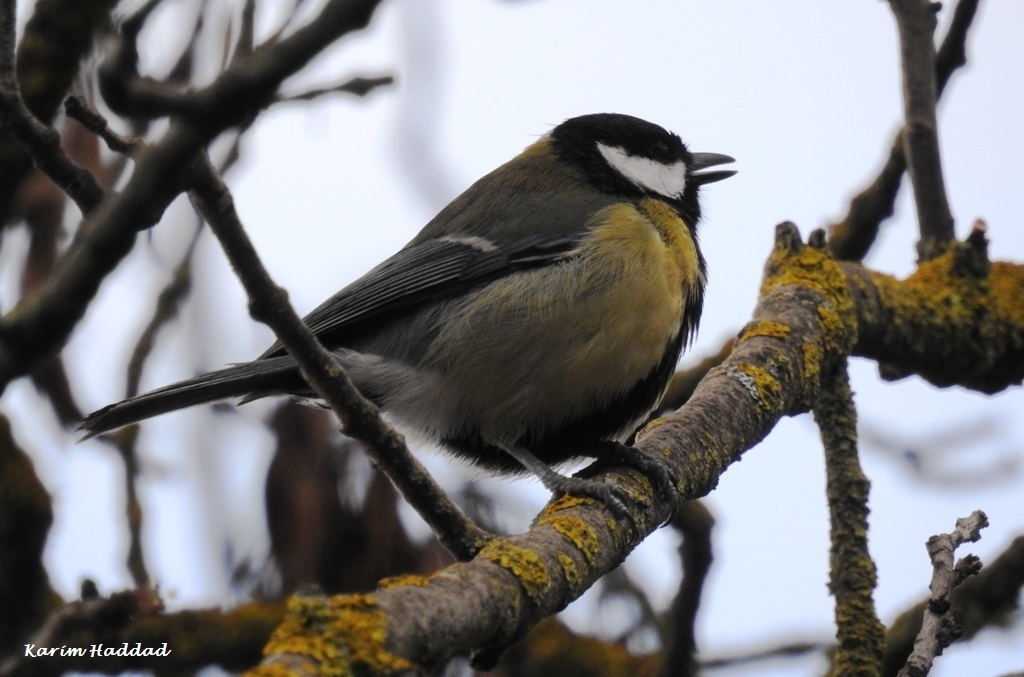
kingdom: Animalia
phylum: Chordata
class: Aves
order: Passeriformes
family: Paridae
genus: Parus
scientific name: Parus major
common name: Great tit
